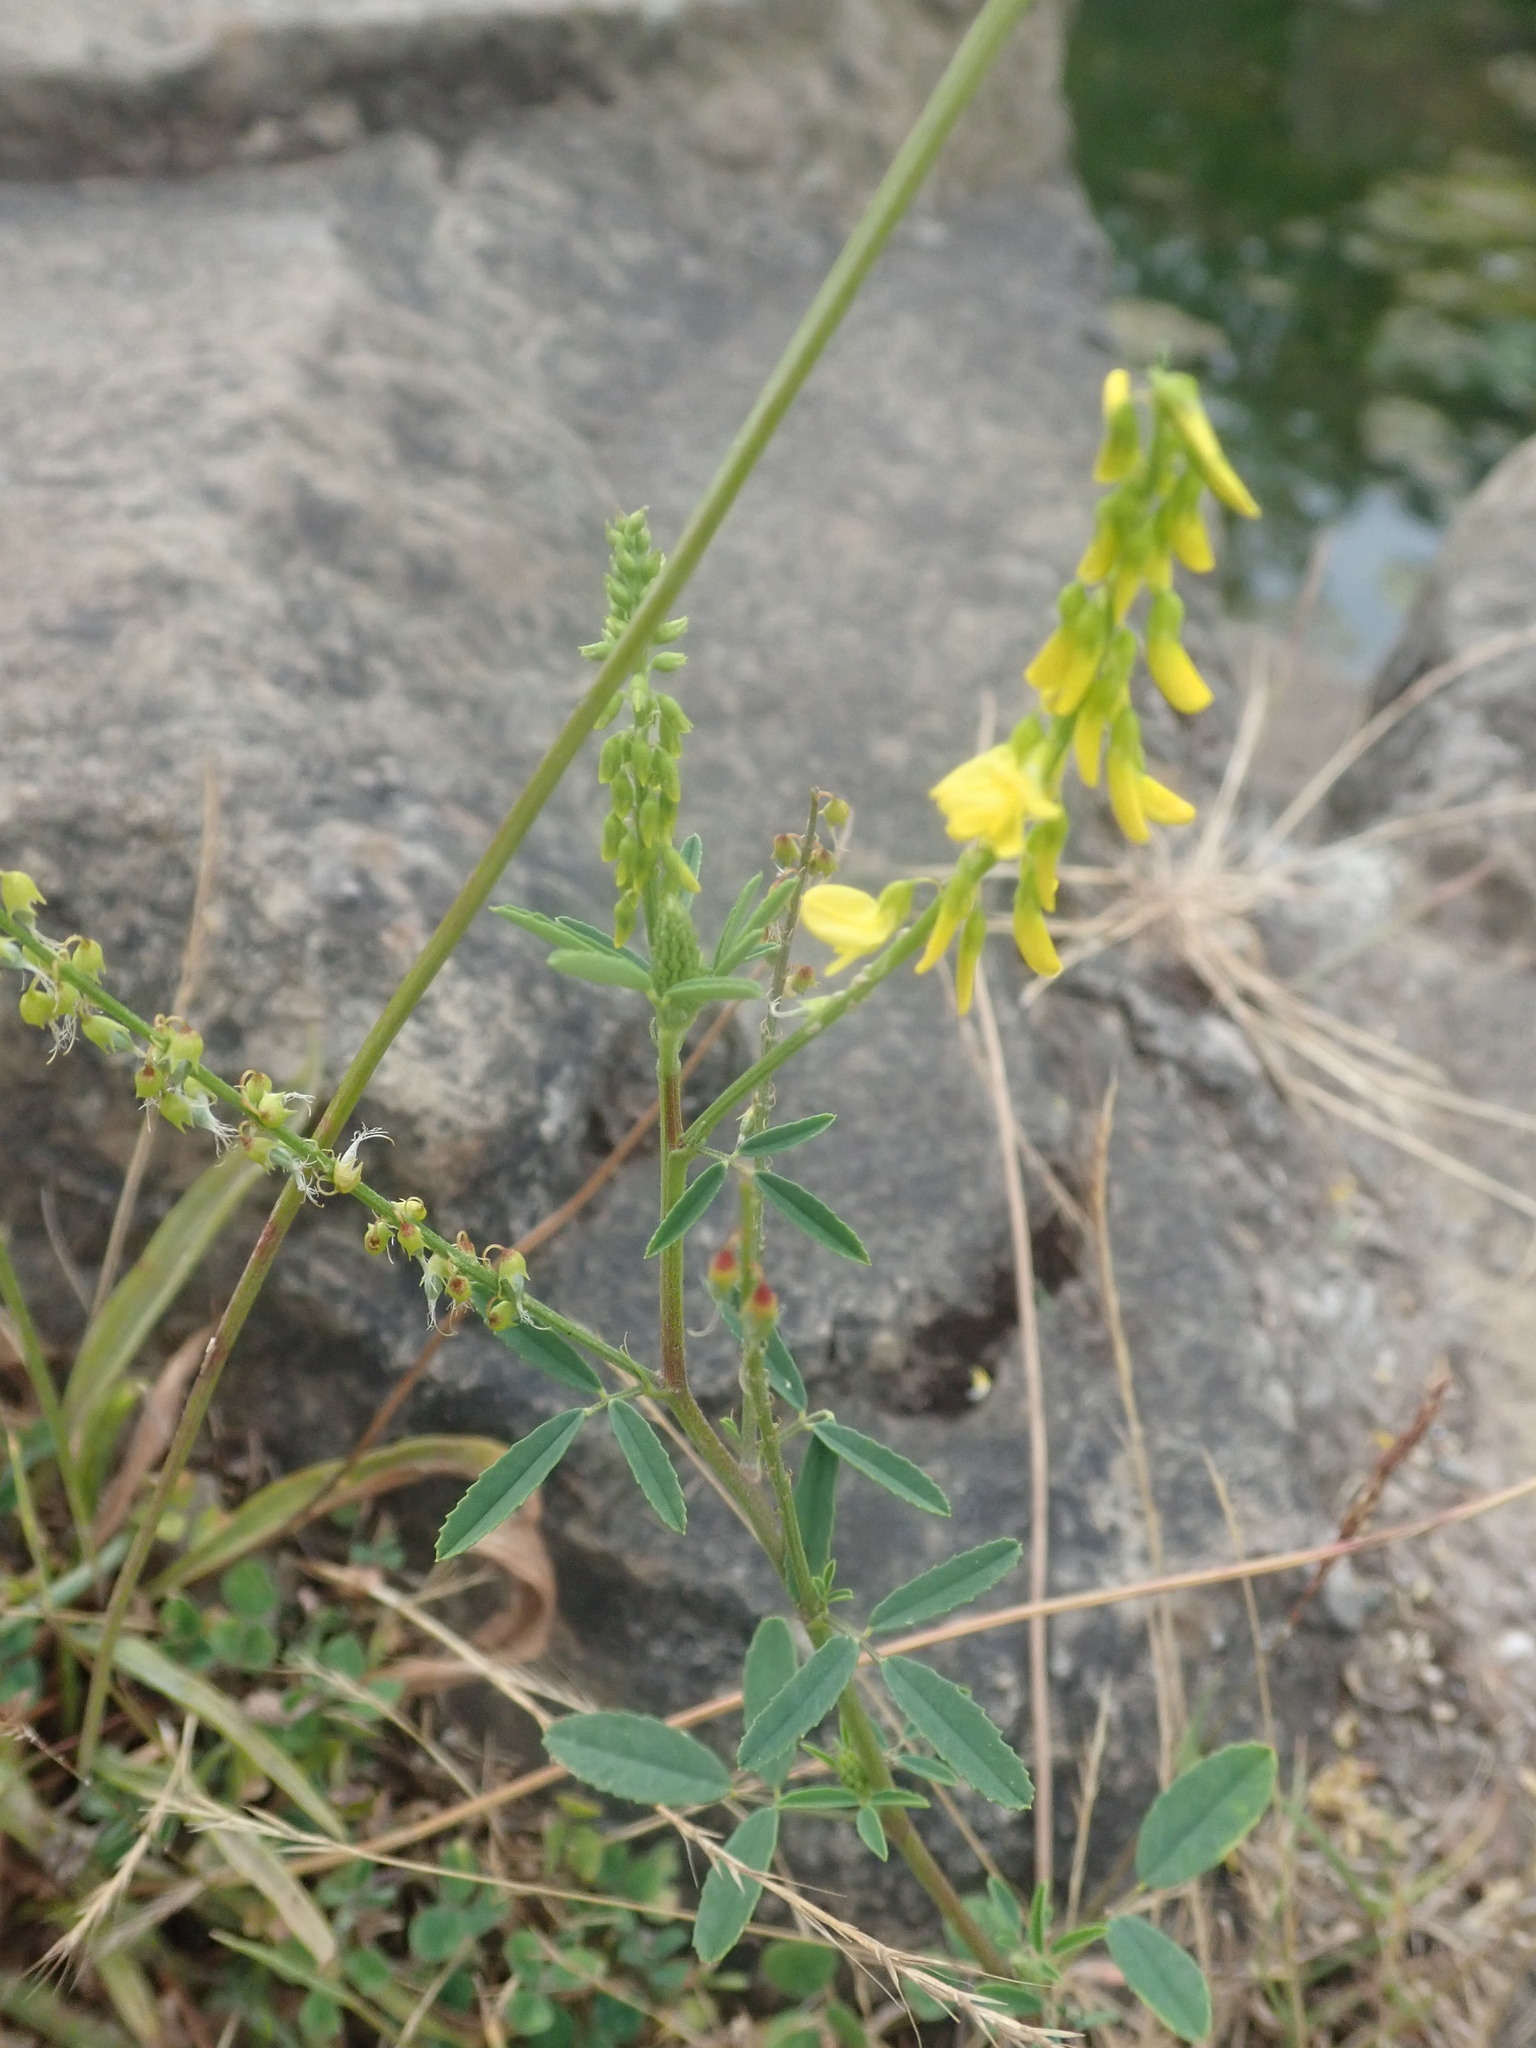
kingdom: Plantae
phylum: Tracheophyta
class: Magnoliopsida
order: Fabales
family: Fabaceae
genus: Melilotus
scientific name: Melilotus officinalis
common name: Sweetclover
